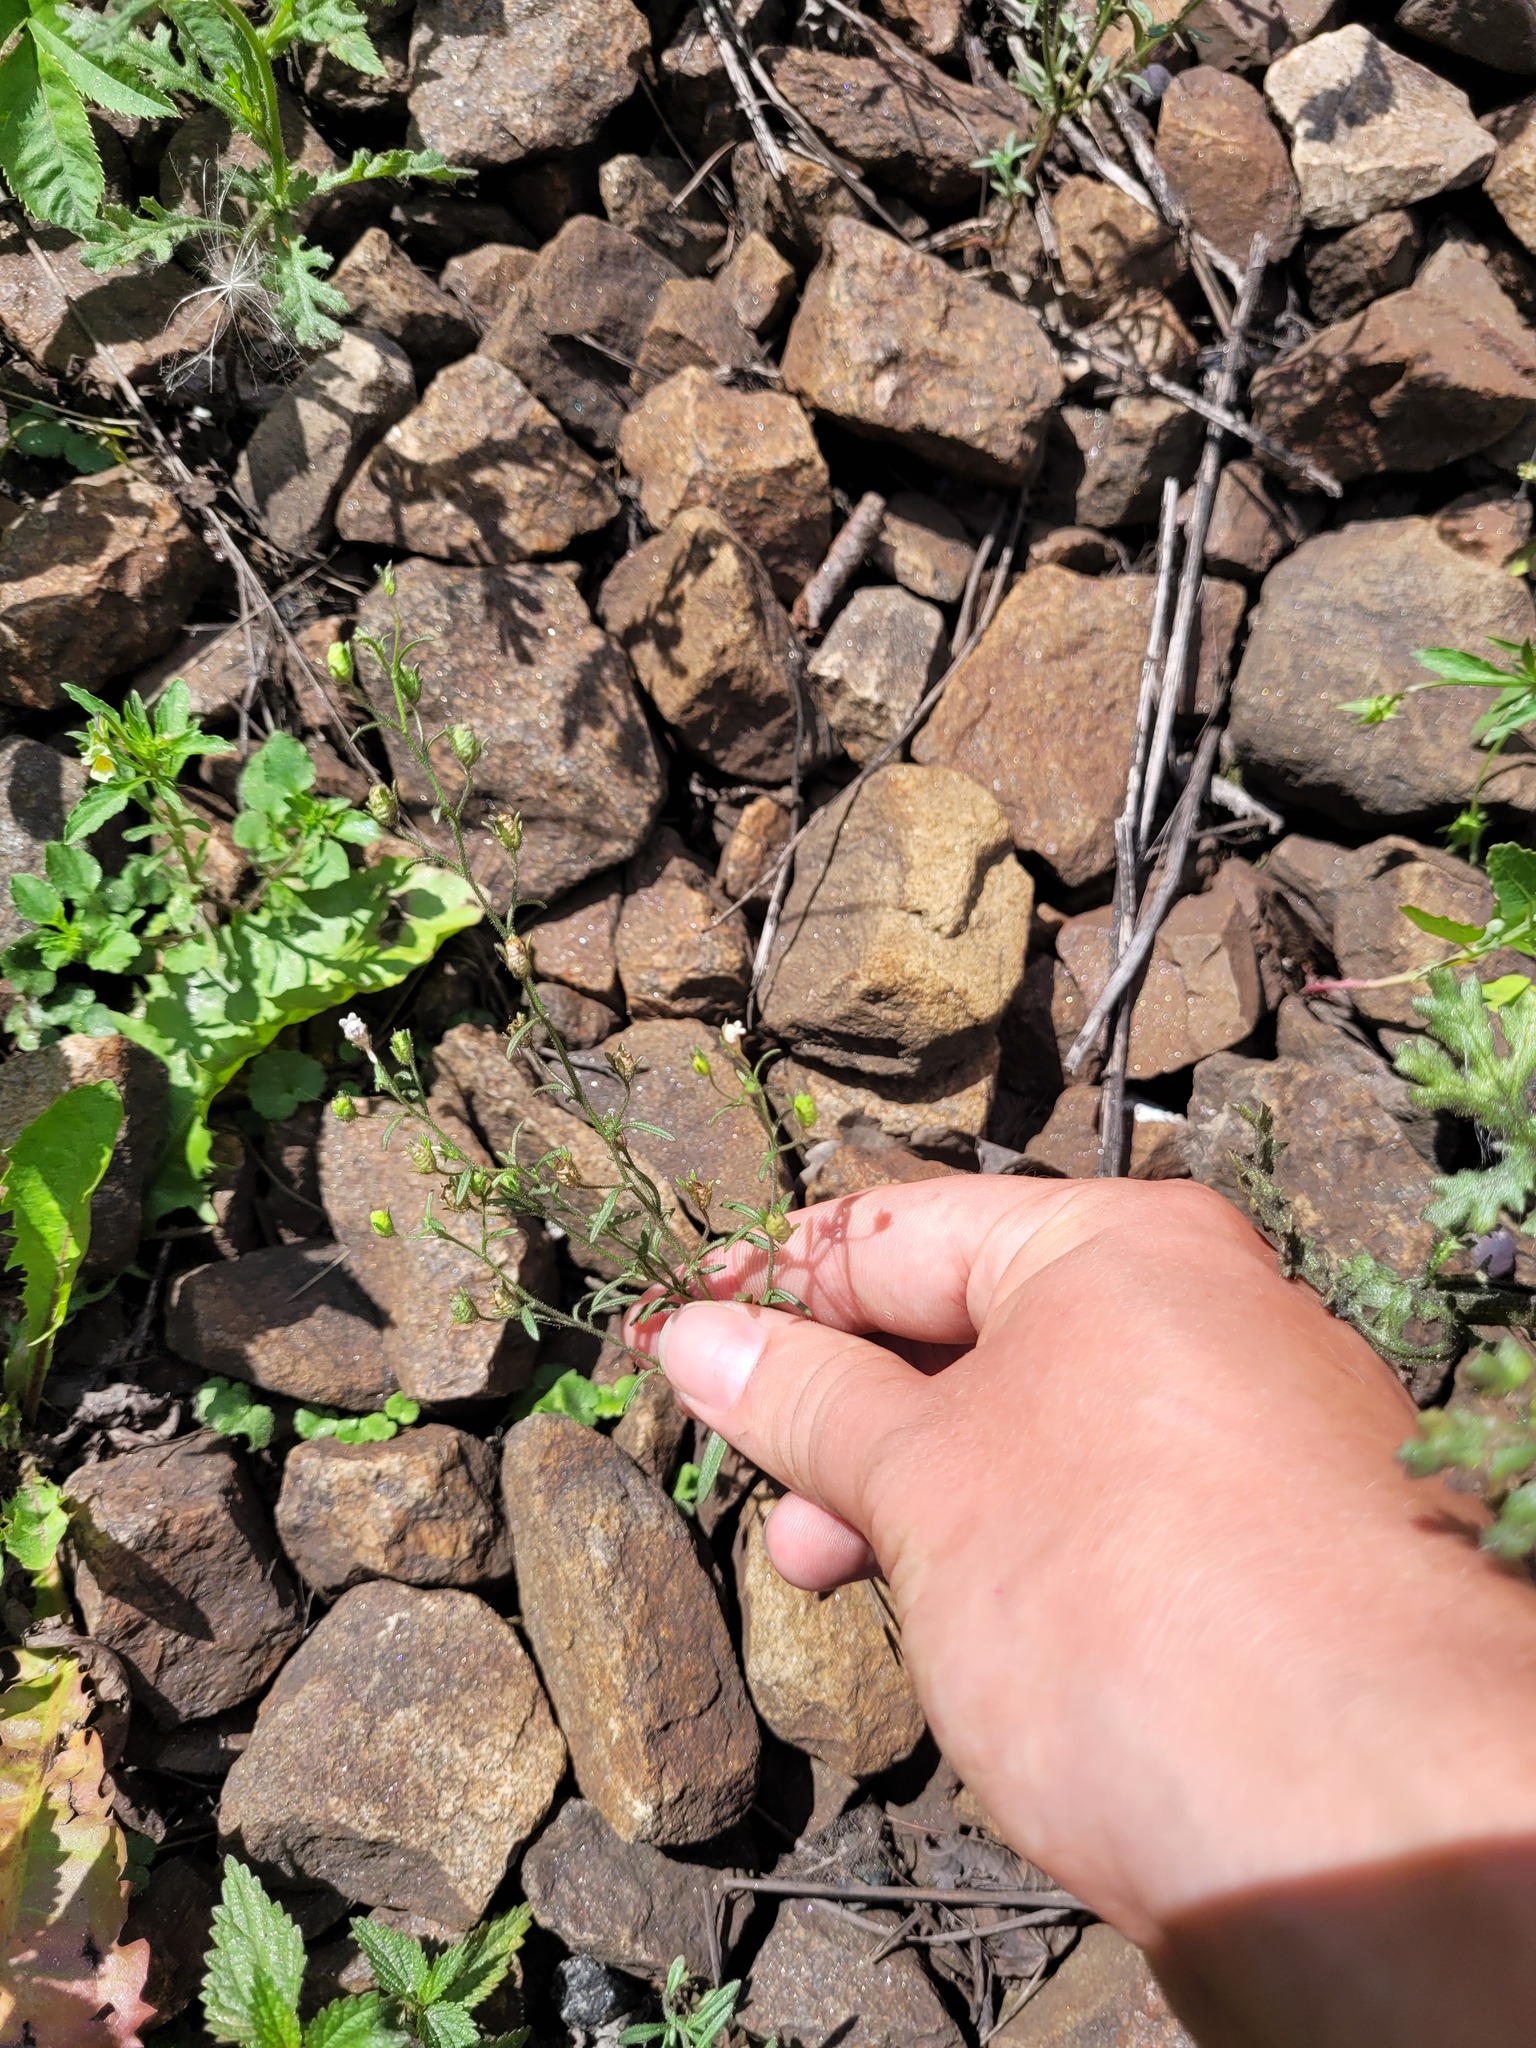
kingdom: Plantae
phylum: Tracheophyta
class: Magnoliopsida
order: Lamiales
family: Plantaginaceae
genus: Chaenorhinum
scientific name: Chaenorhinum minus
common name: Dwarf snapdragon
